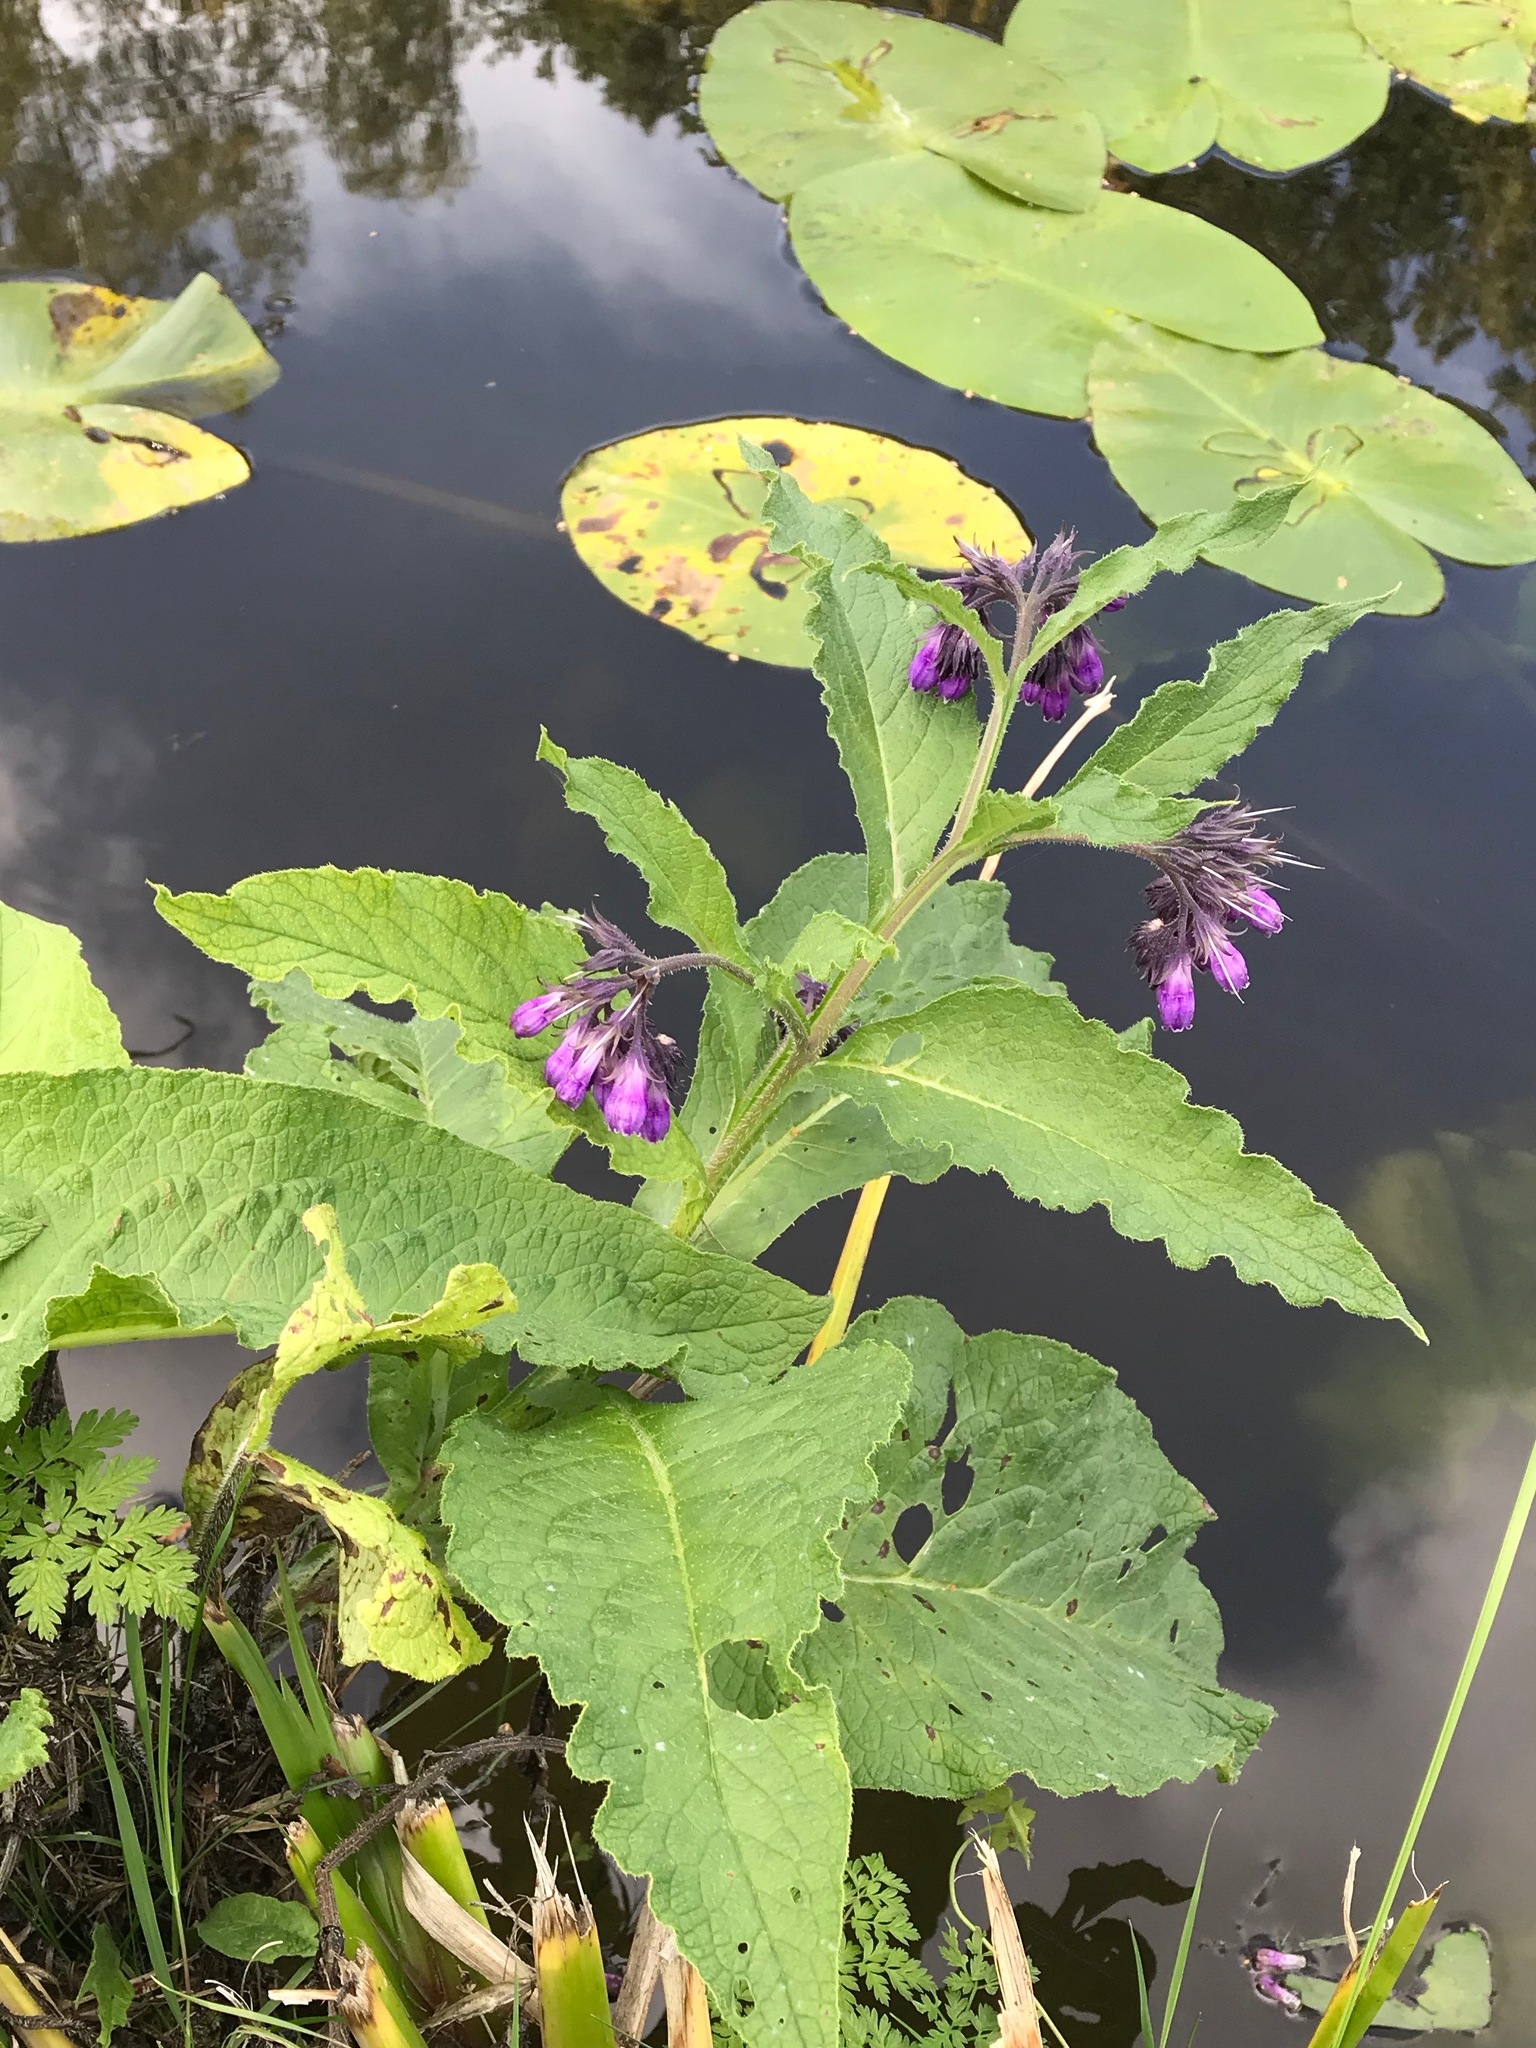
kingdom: Plantae
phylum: Tracheophyta
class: Magnoliopsida
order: Boraginales
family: Boraginaceae
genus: Symphytum
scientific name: Symphytum officinale
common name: Common comfrey
